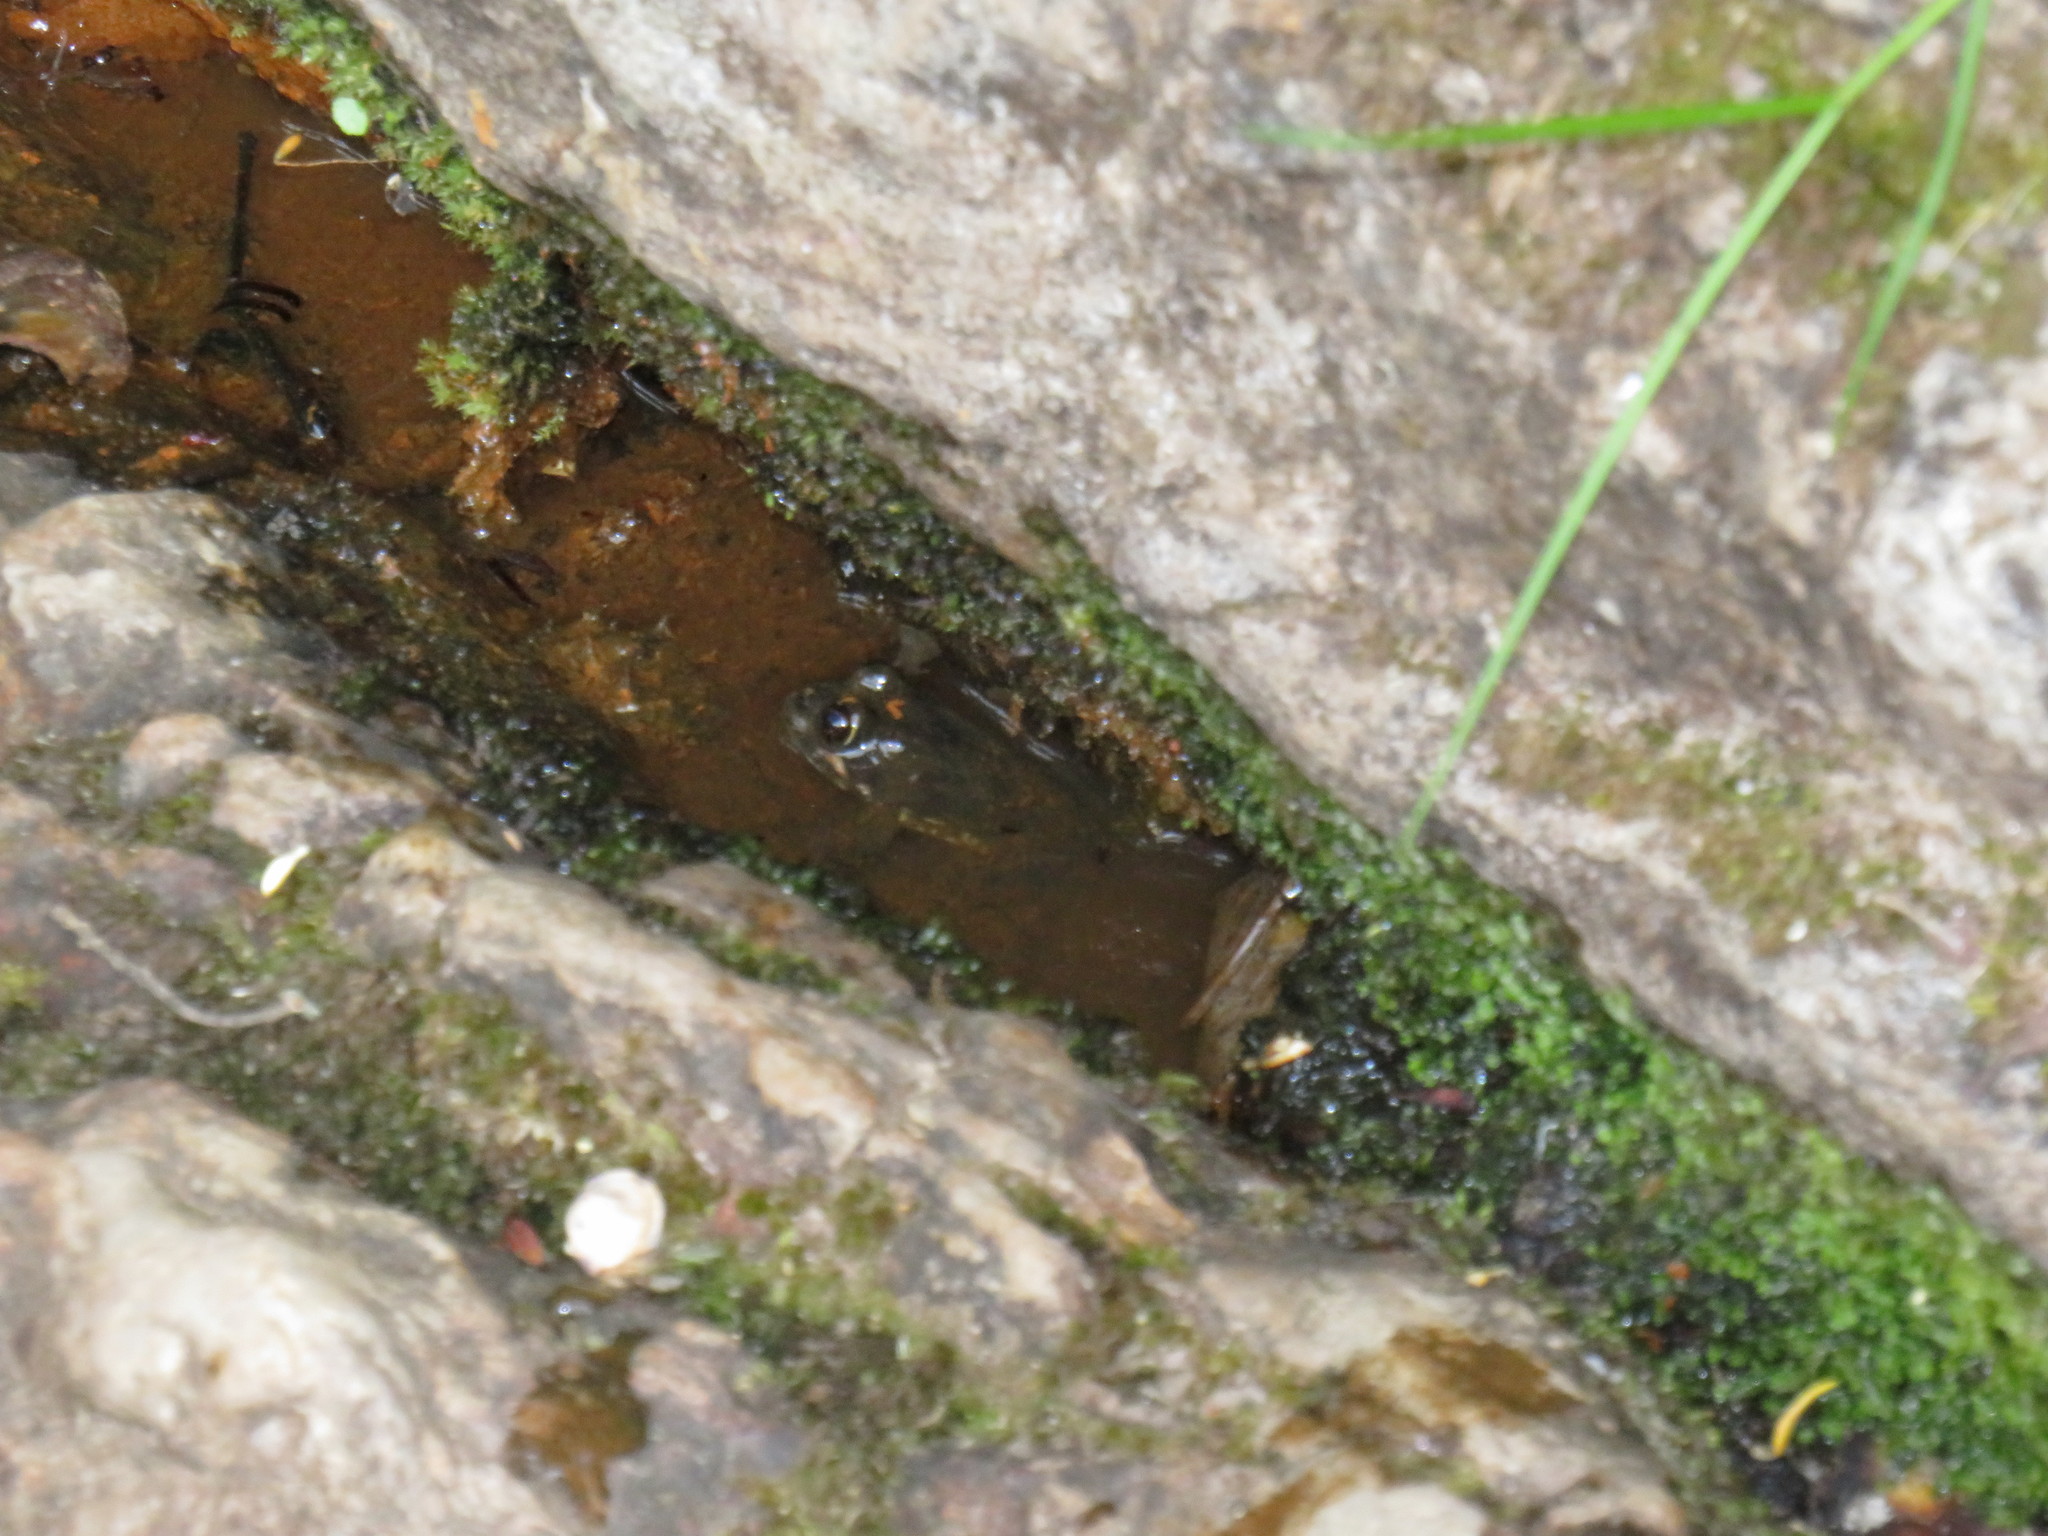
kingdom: Animalia
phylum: Chordata
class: Amphibia
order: Anura
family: Pyxicephalidae
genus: Amietia
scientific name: Amietia fuscigula
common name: Cape rana
